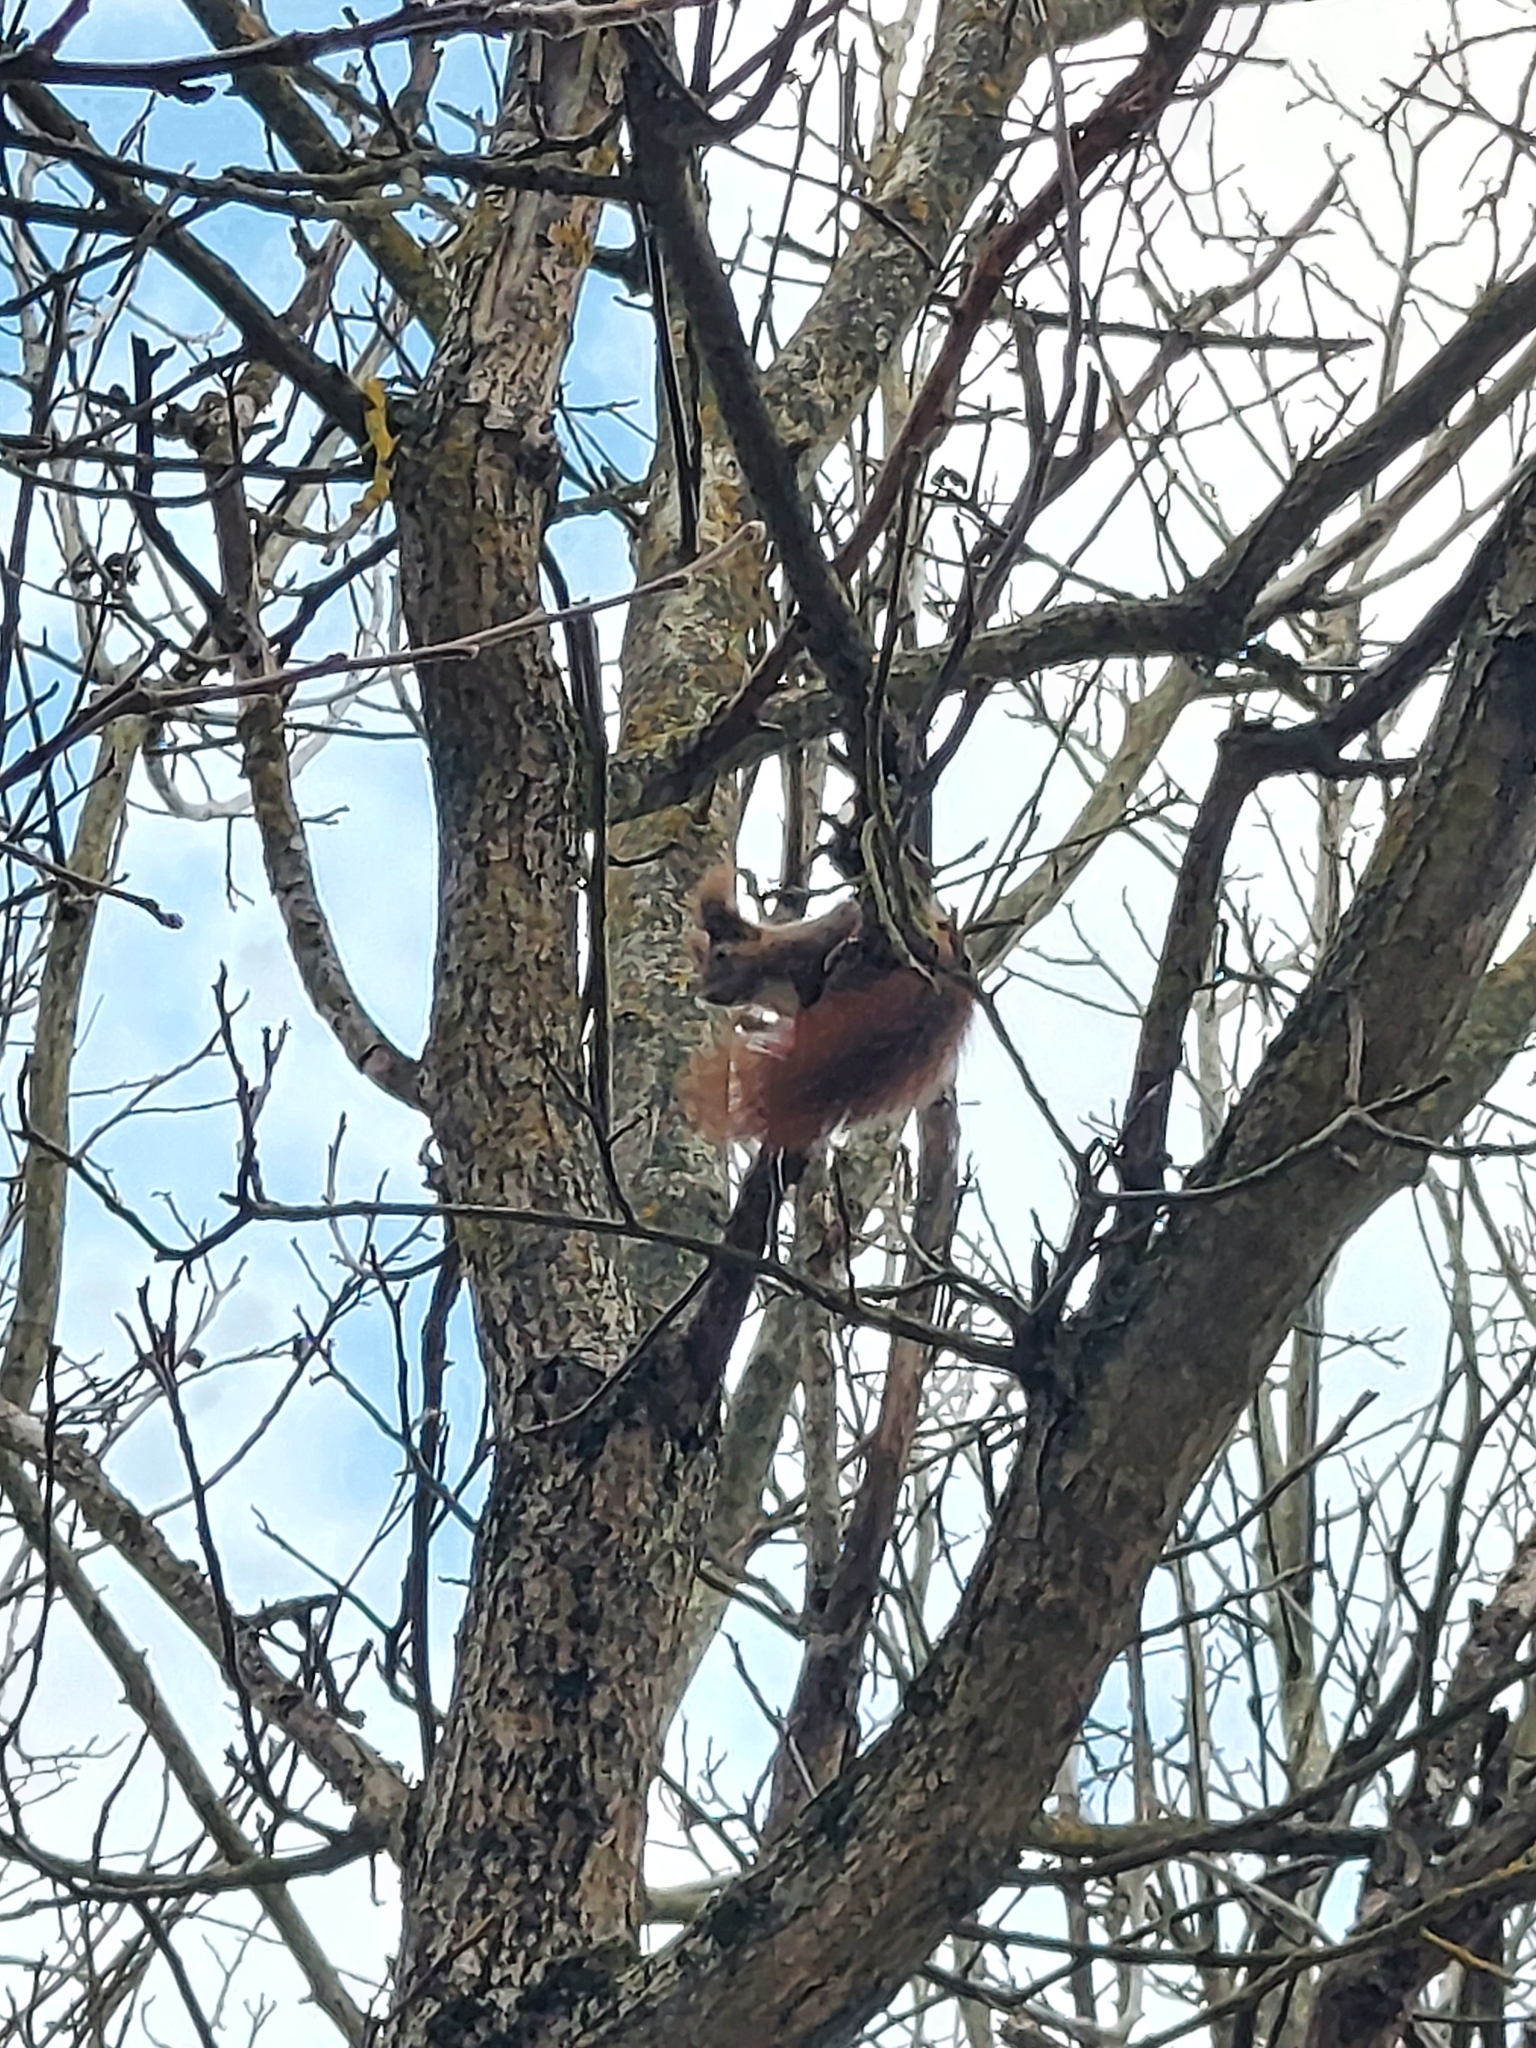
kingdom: Animalia
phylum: Chordata
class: Mammalia
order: Rodentia
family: Sciuridae
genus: Sciurus
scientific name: Sciurus vulgaris
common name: Eurasian red squirrel
